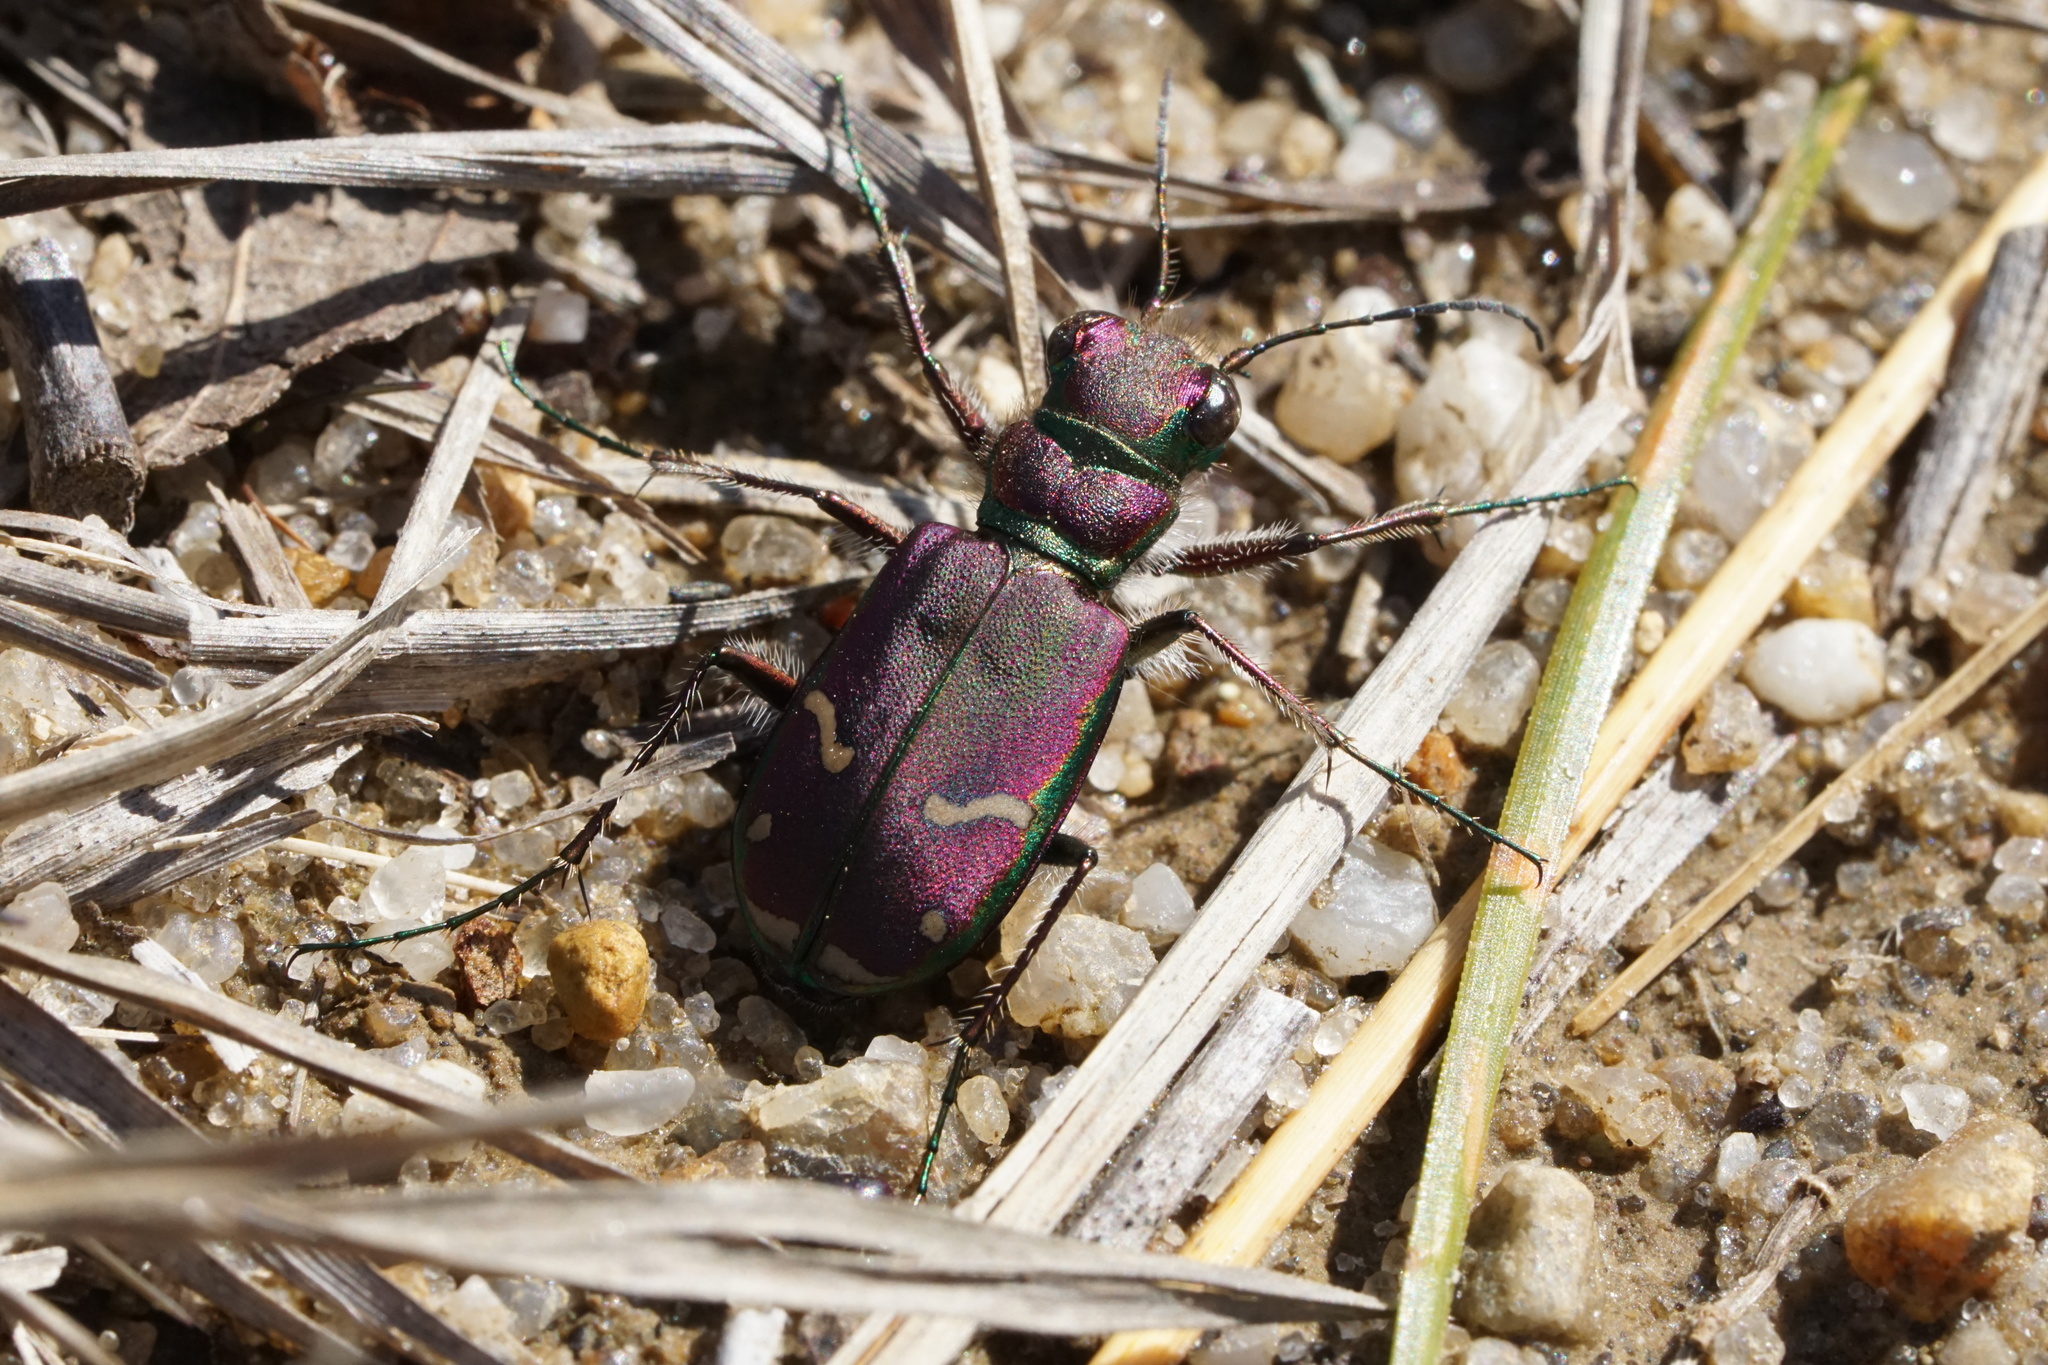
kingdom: Animalia
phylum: Arthropoda
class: Insecta
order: Coleoptera
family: Carabidae
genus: Cicindela
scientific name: Cicindela purpurea
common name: Cow path tiger beetle
